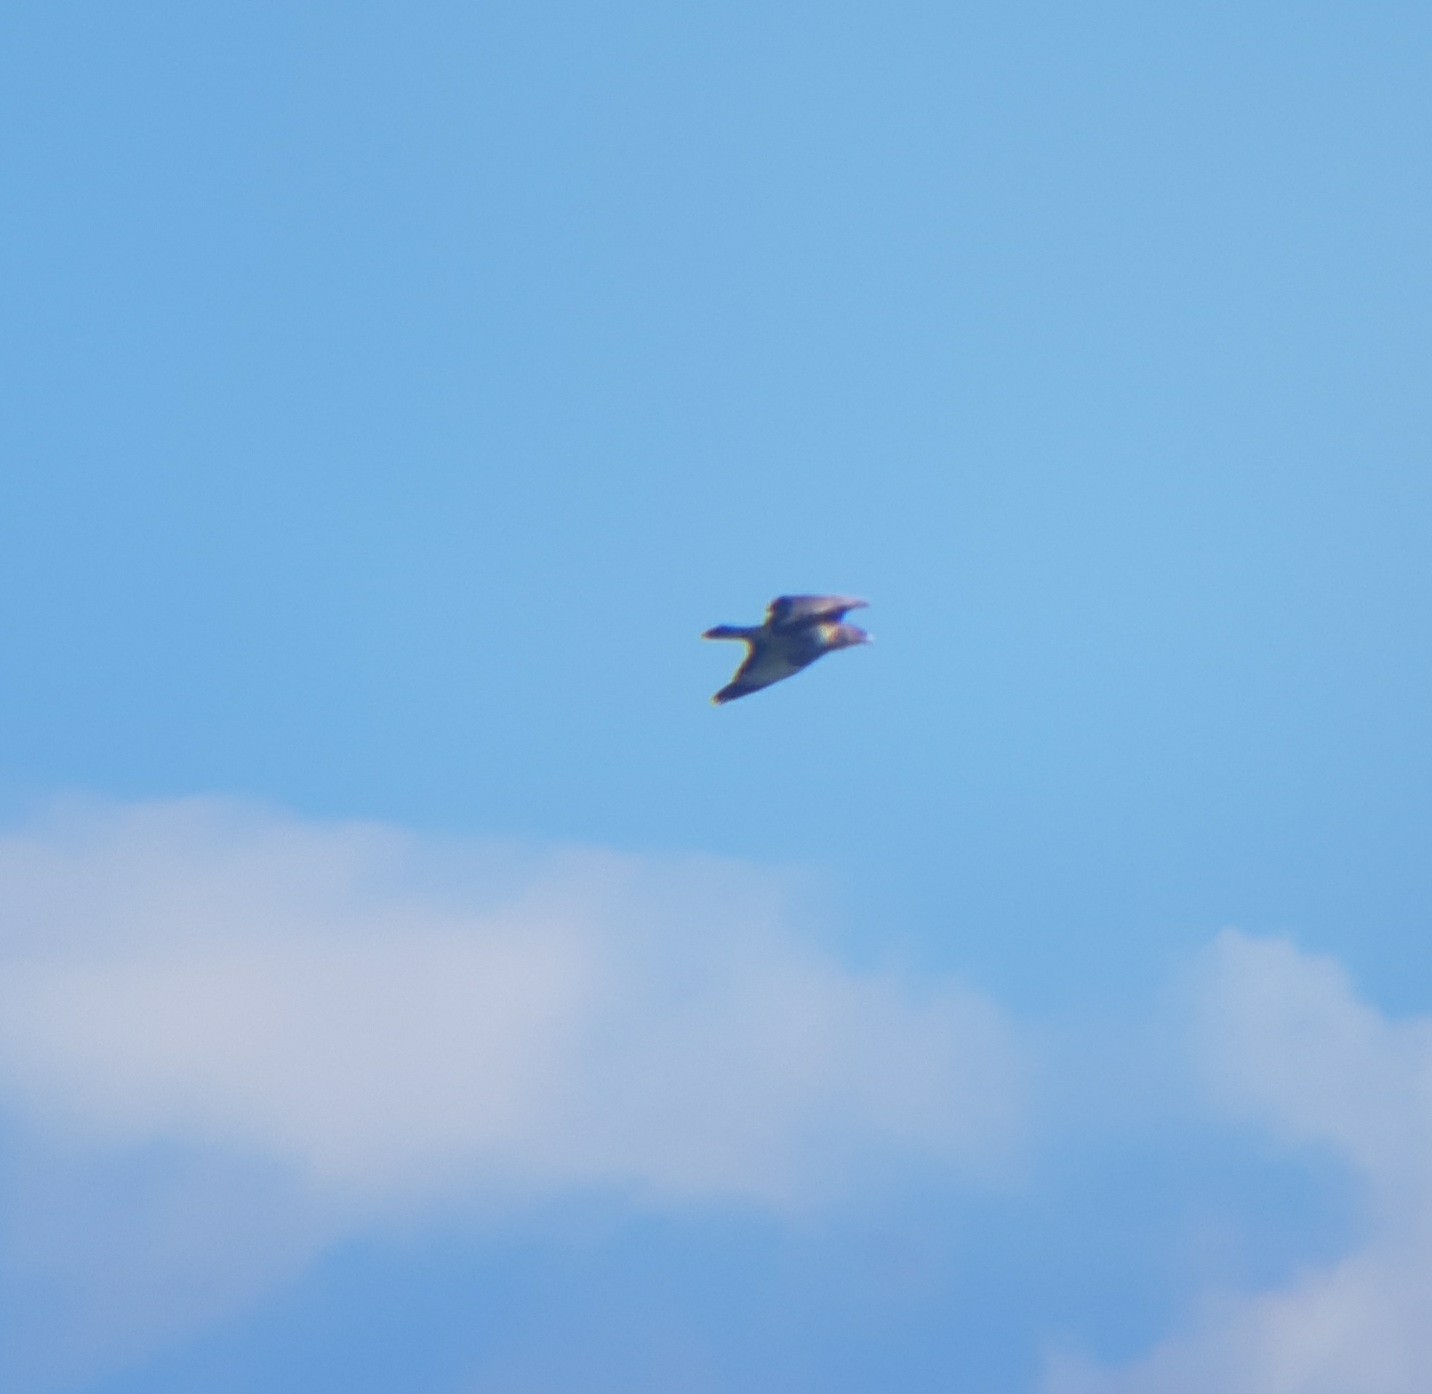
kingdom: Animalia
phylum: Chordata
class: Aves
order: Accipitriformes
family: Accipitridae
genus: Buteo
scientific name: Buteo buteo
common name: Common buzzard
